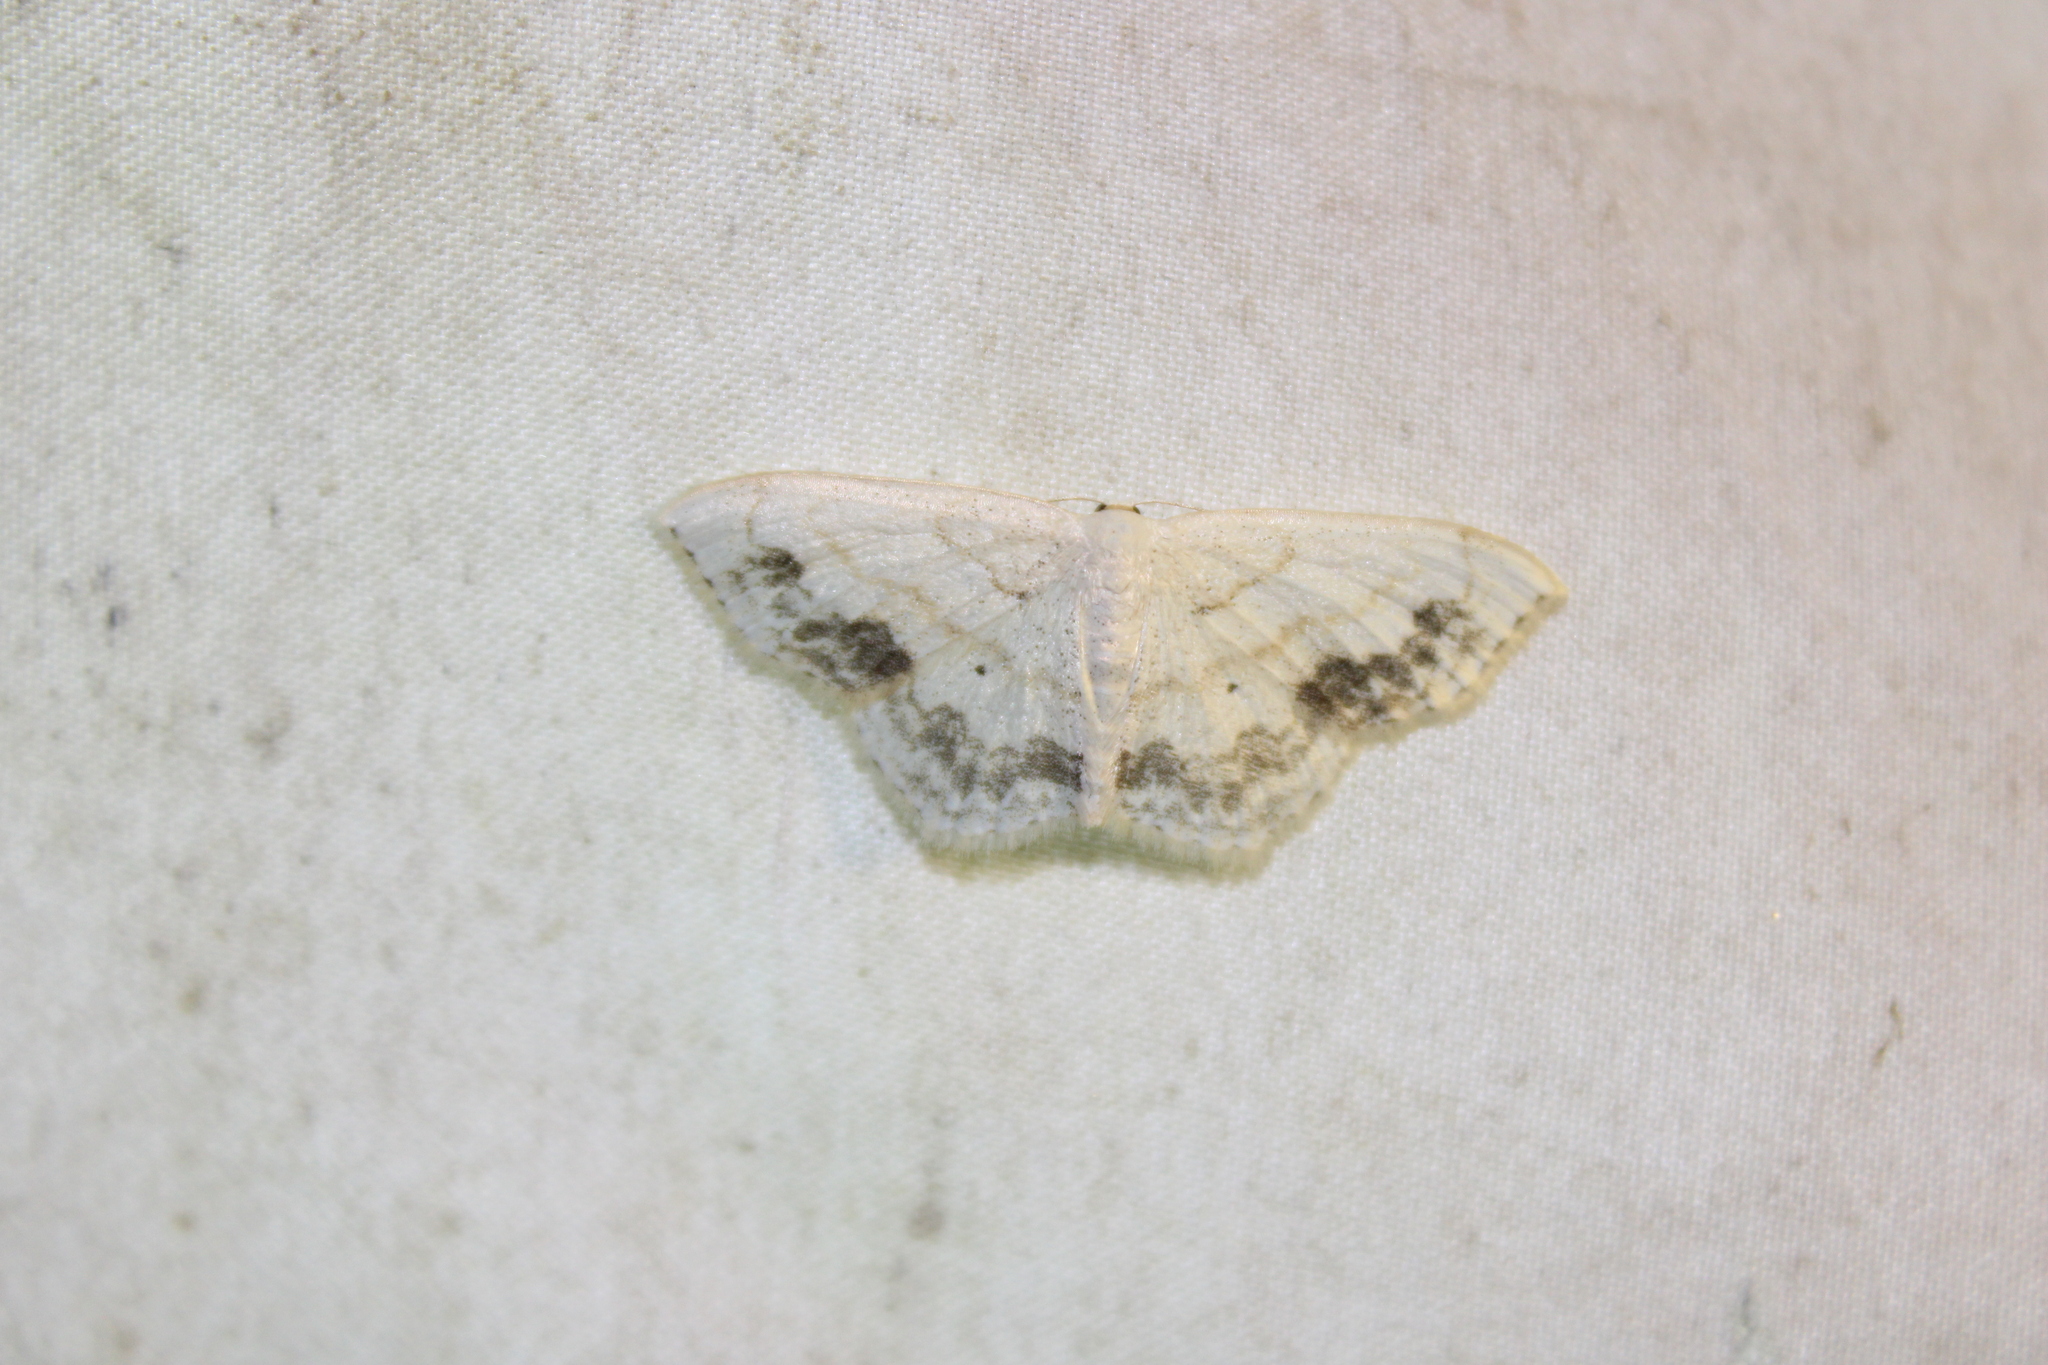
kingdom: Animalia
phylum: Arthropoda
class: Insecta
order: Lepidoptera
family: Geometridae
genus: Scopula
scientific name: Scopula limboundata
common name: Large lace border
